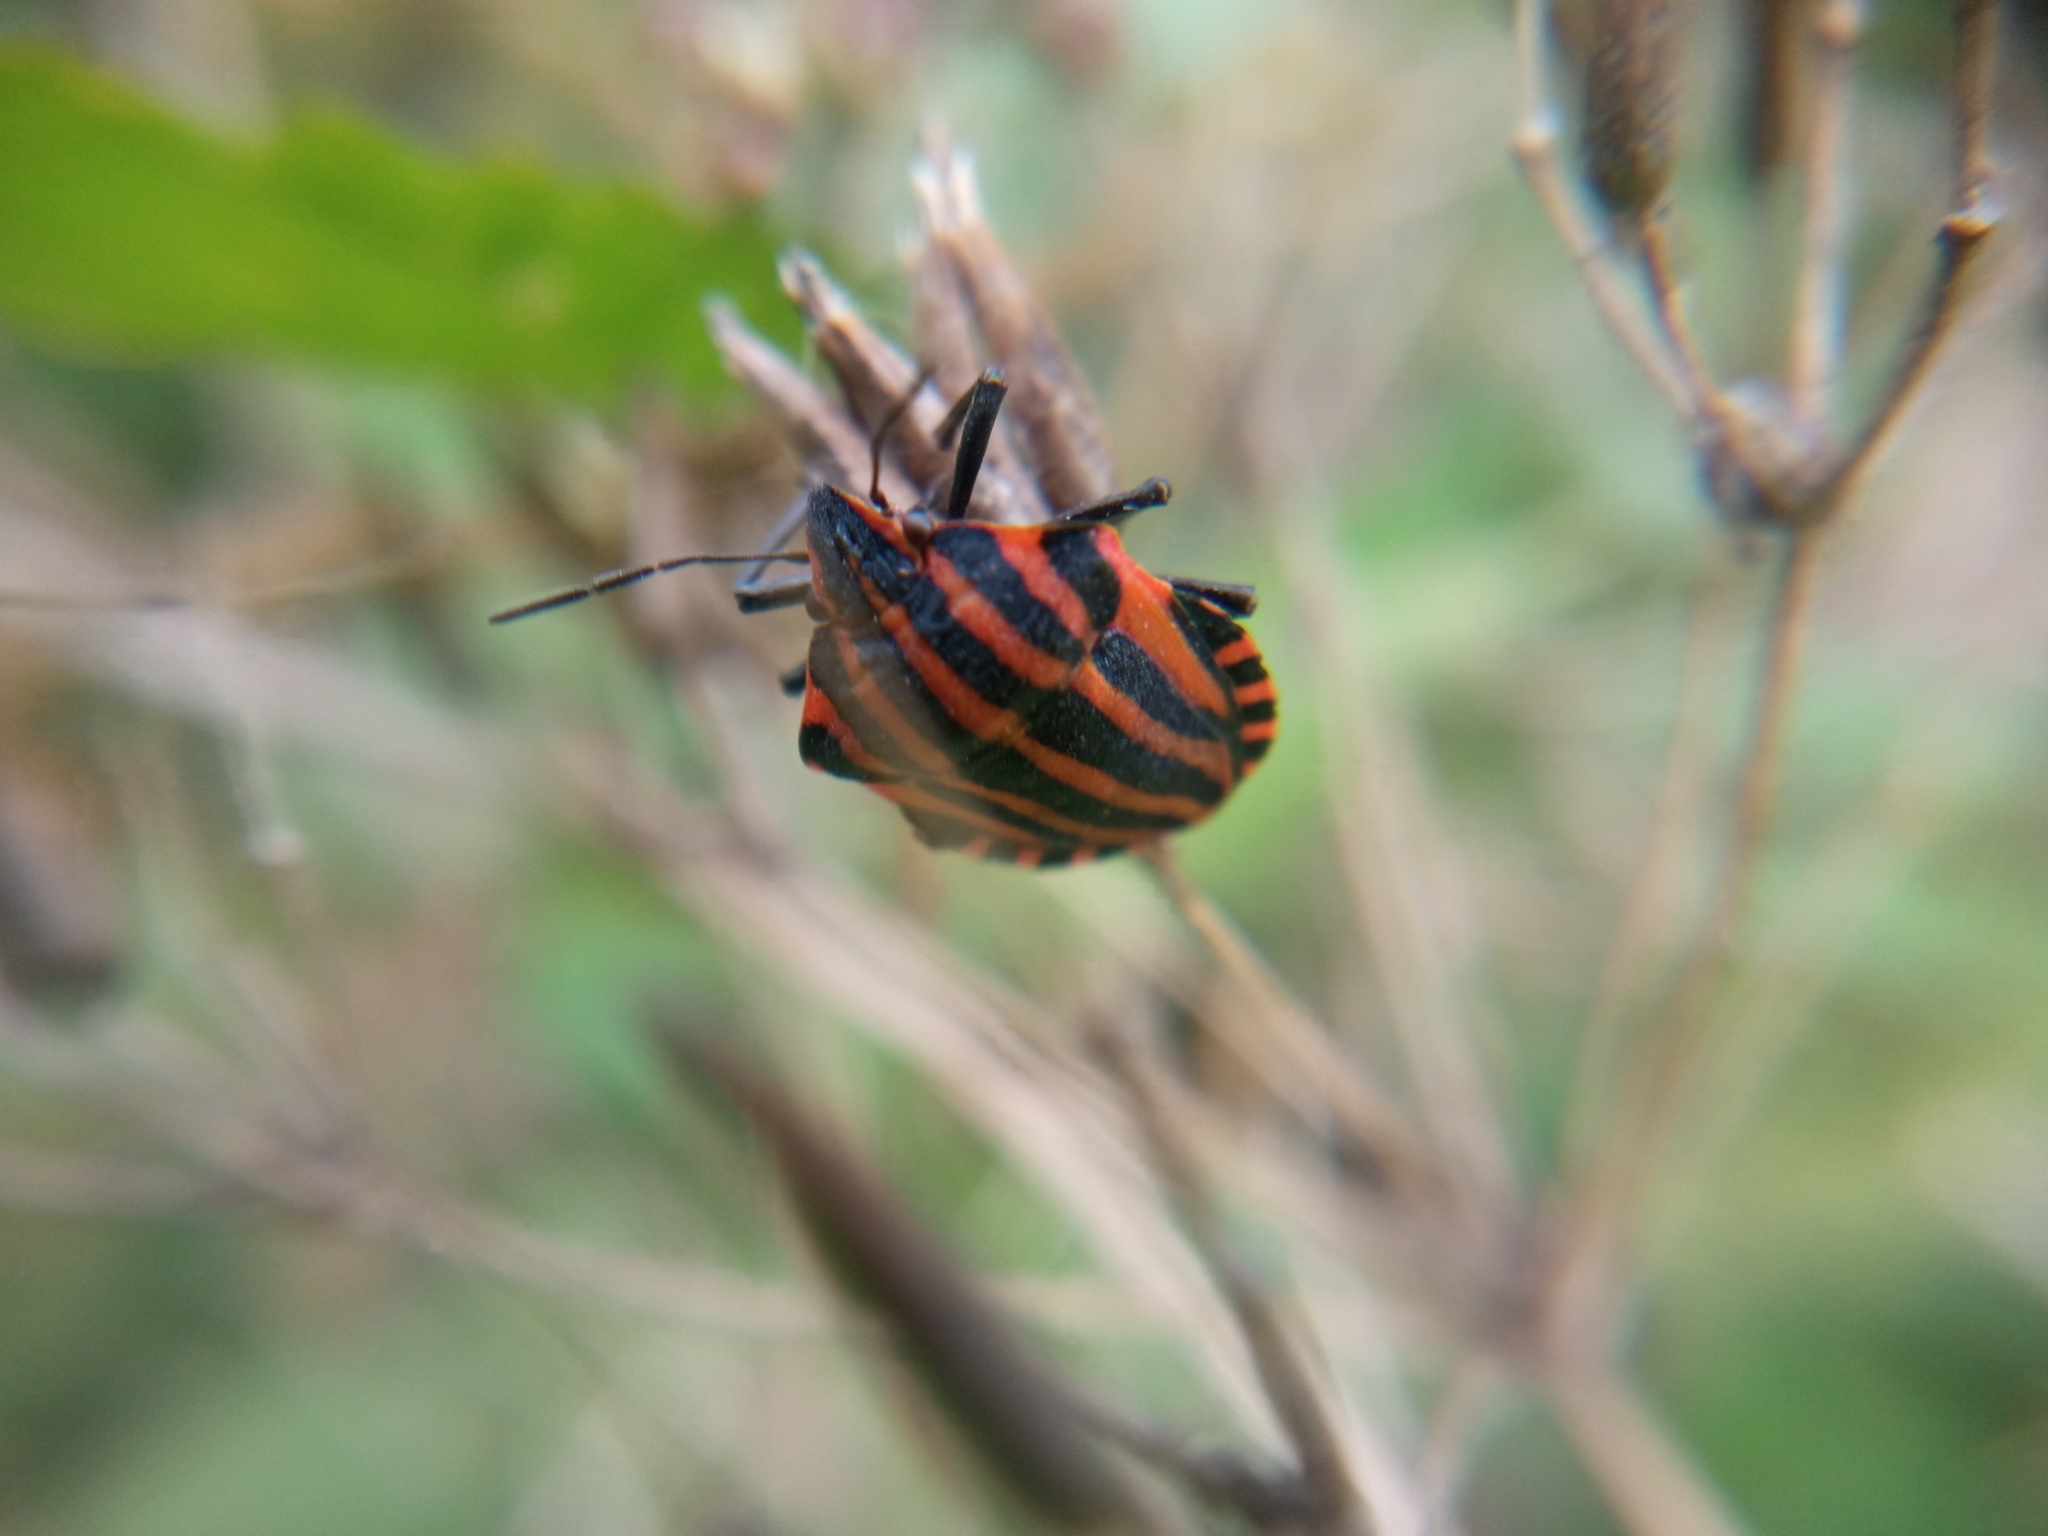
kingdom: Animalia
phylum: Arthropoda
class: Insecta
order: Hemiptera
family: Pentatomidae
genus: Graphosoma
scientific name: Graphosoma italicum
